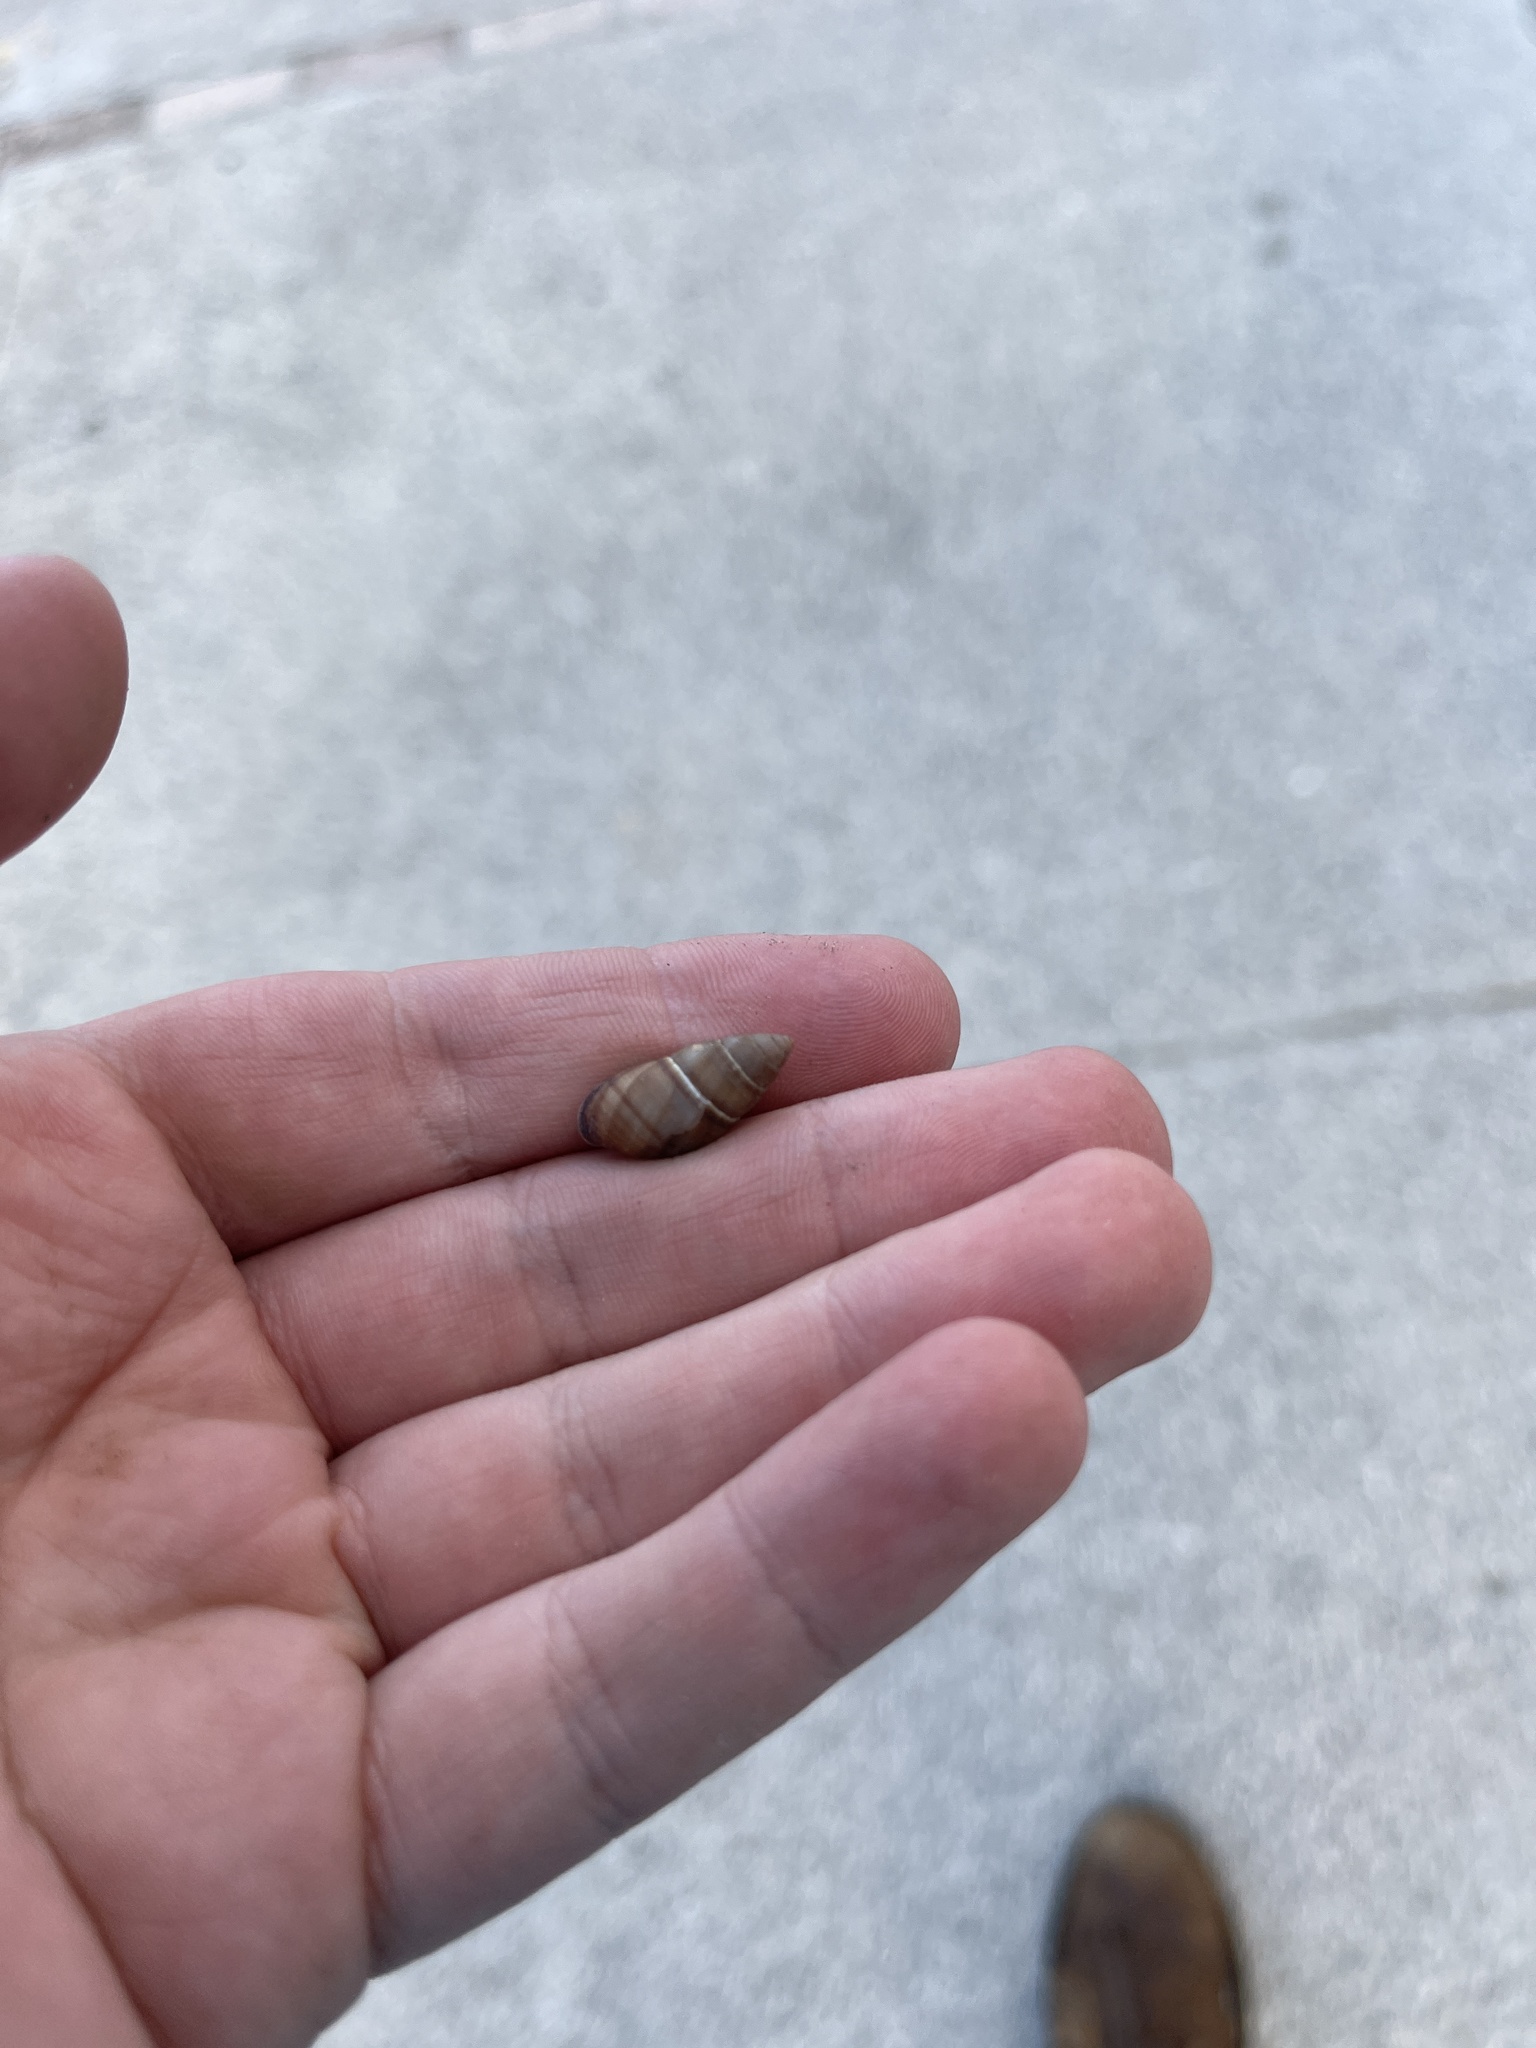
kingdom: Animalia
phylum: Mollusca
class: Gastropoda
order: Stylommatophora
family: Bulimulidae
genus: Bulimulus
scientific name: Bulimulus guadalupensis
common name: West indian bulimulus
